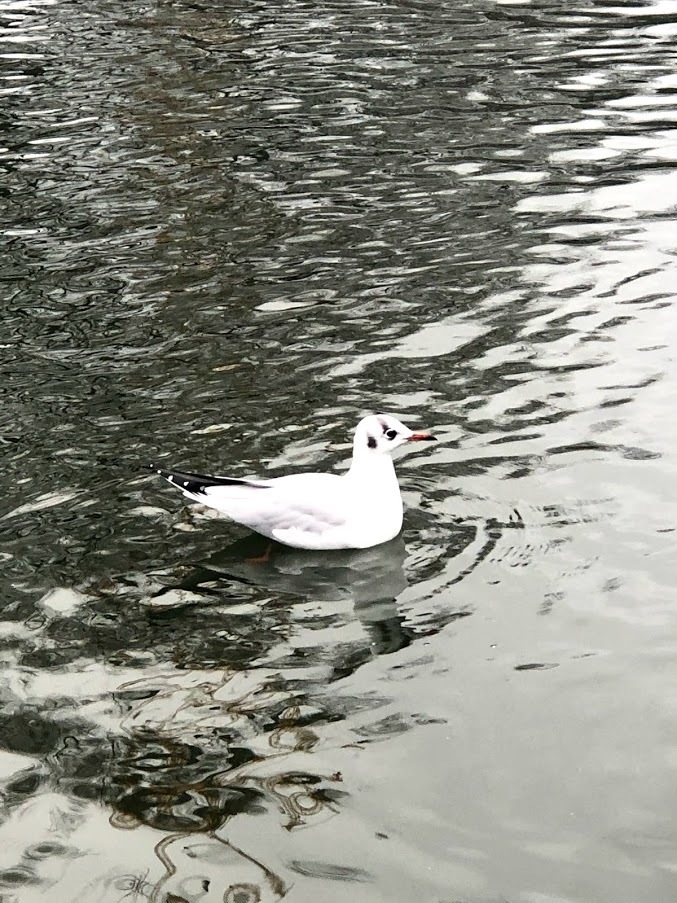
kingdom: Animalia
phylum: Chordata
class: Aves
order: Charadriiformes
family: Laridae
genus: Chroicocephalus
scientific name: Chroicocephalus ridibundus
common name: Black-headed gull
